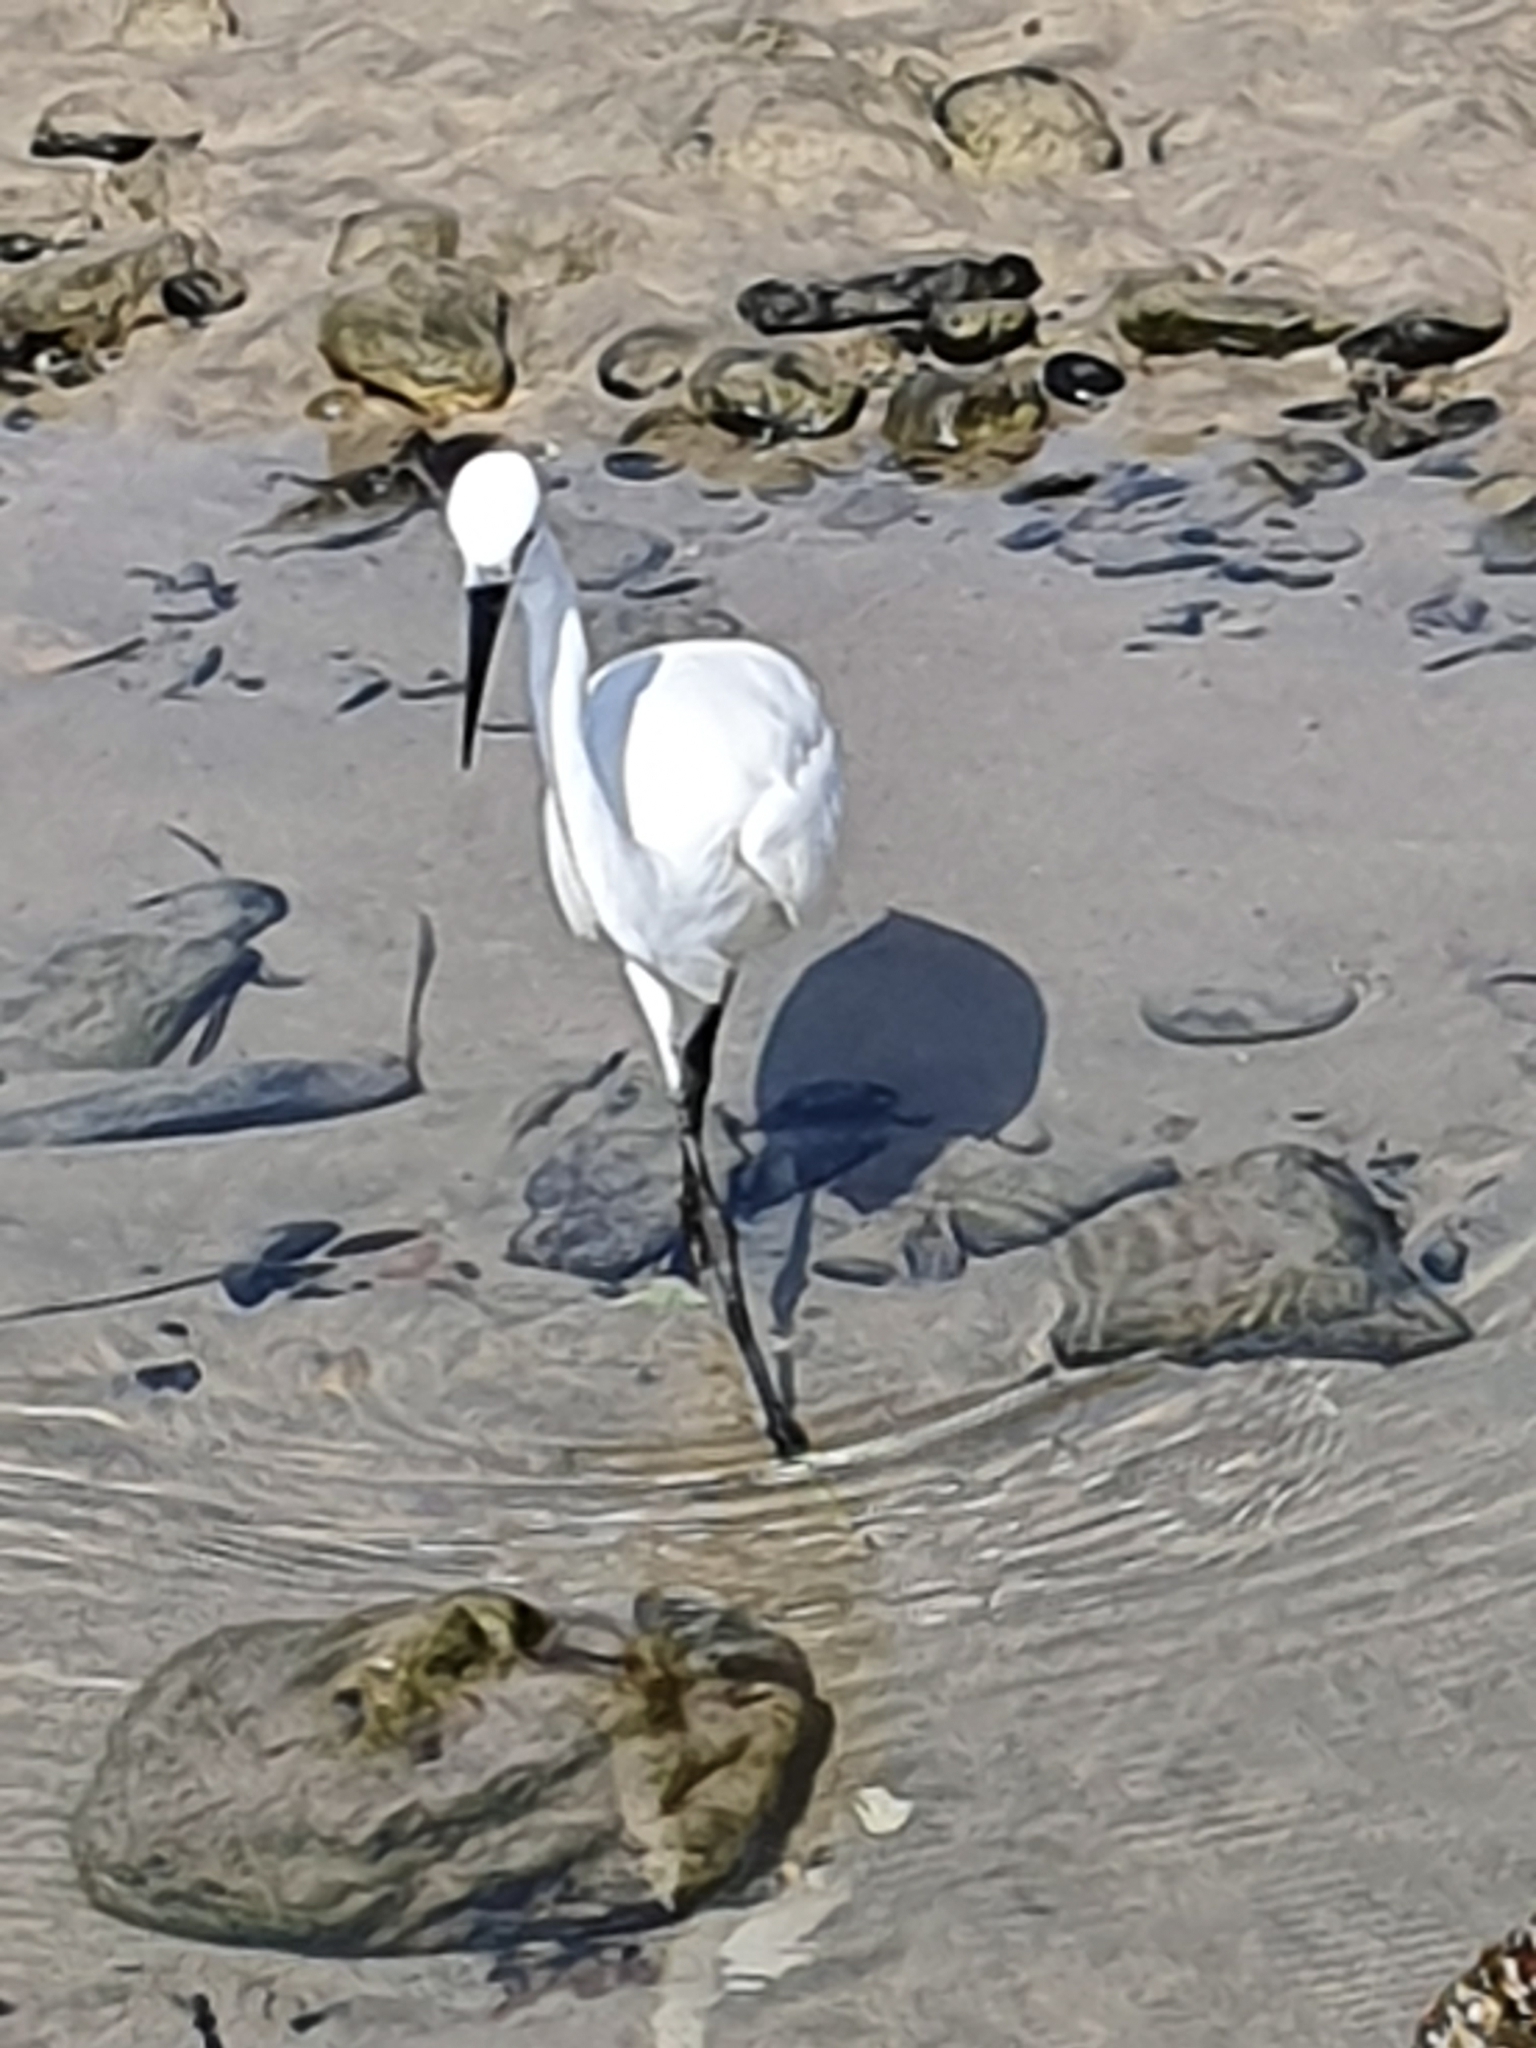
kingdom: Animalia
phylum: Chordata
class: Aves
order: Pelecaniformes
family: Ardeidae
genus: Egretta
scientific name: Egretta garzetta
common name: Little egret
